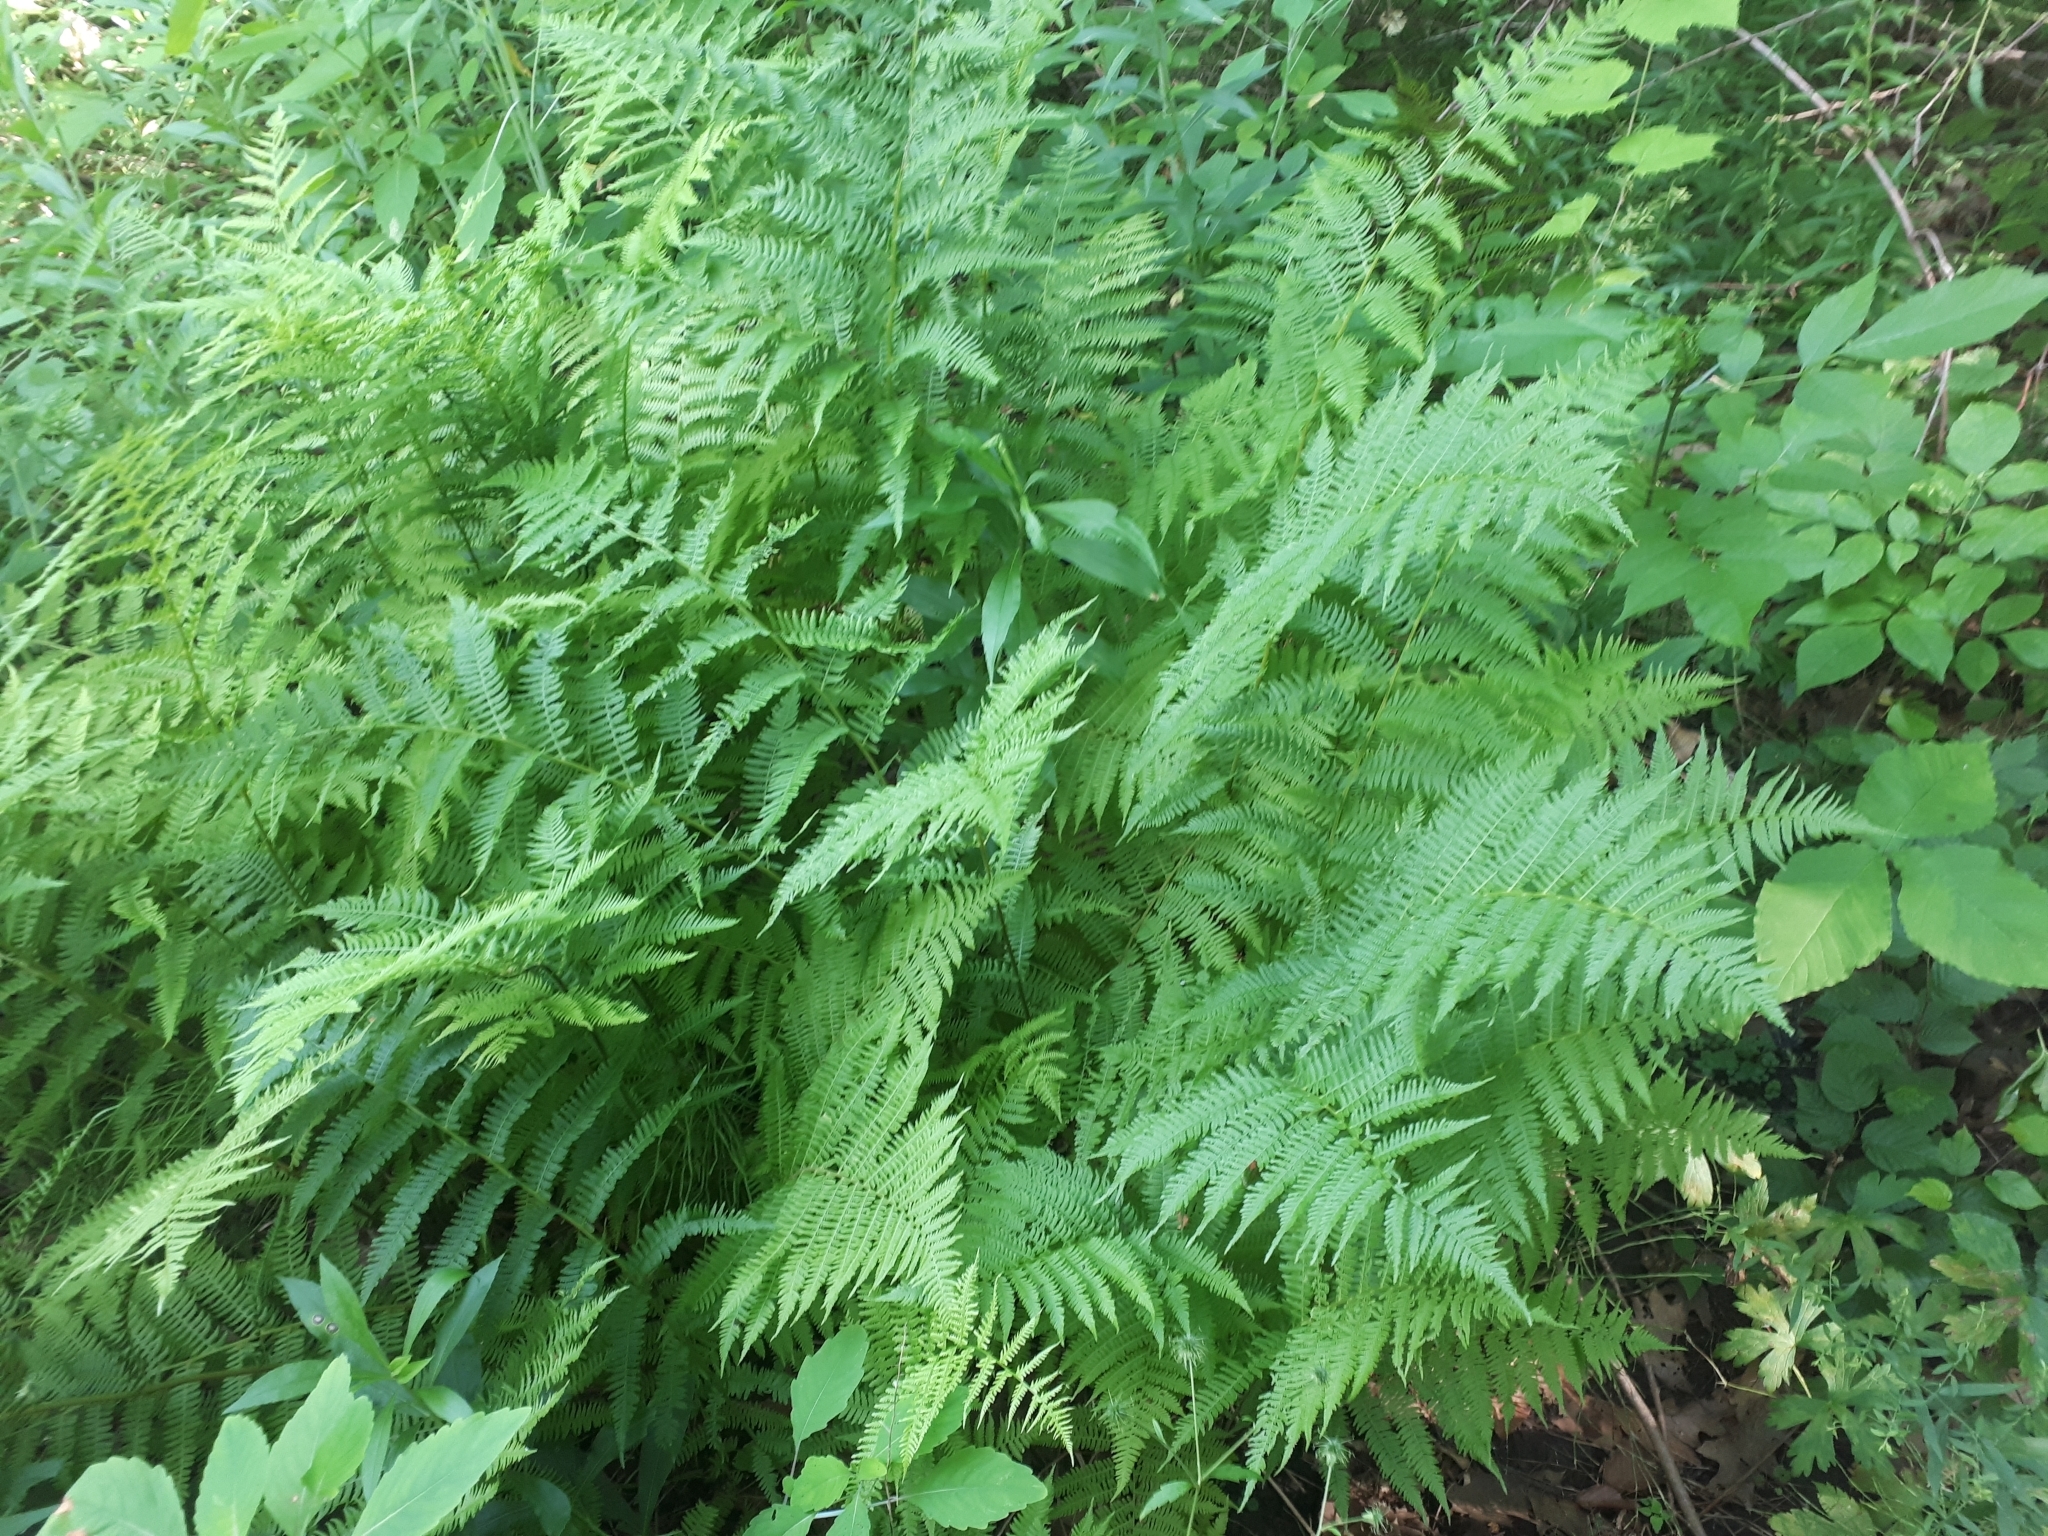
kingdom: Plantae
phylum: Tracheophyta
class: Polypodiopsida
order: Polypodiales
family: Athyriaceae
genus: Athyrium
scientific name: Athyrium angustum
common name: Northern lady fern
